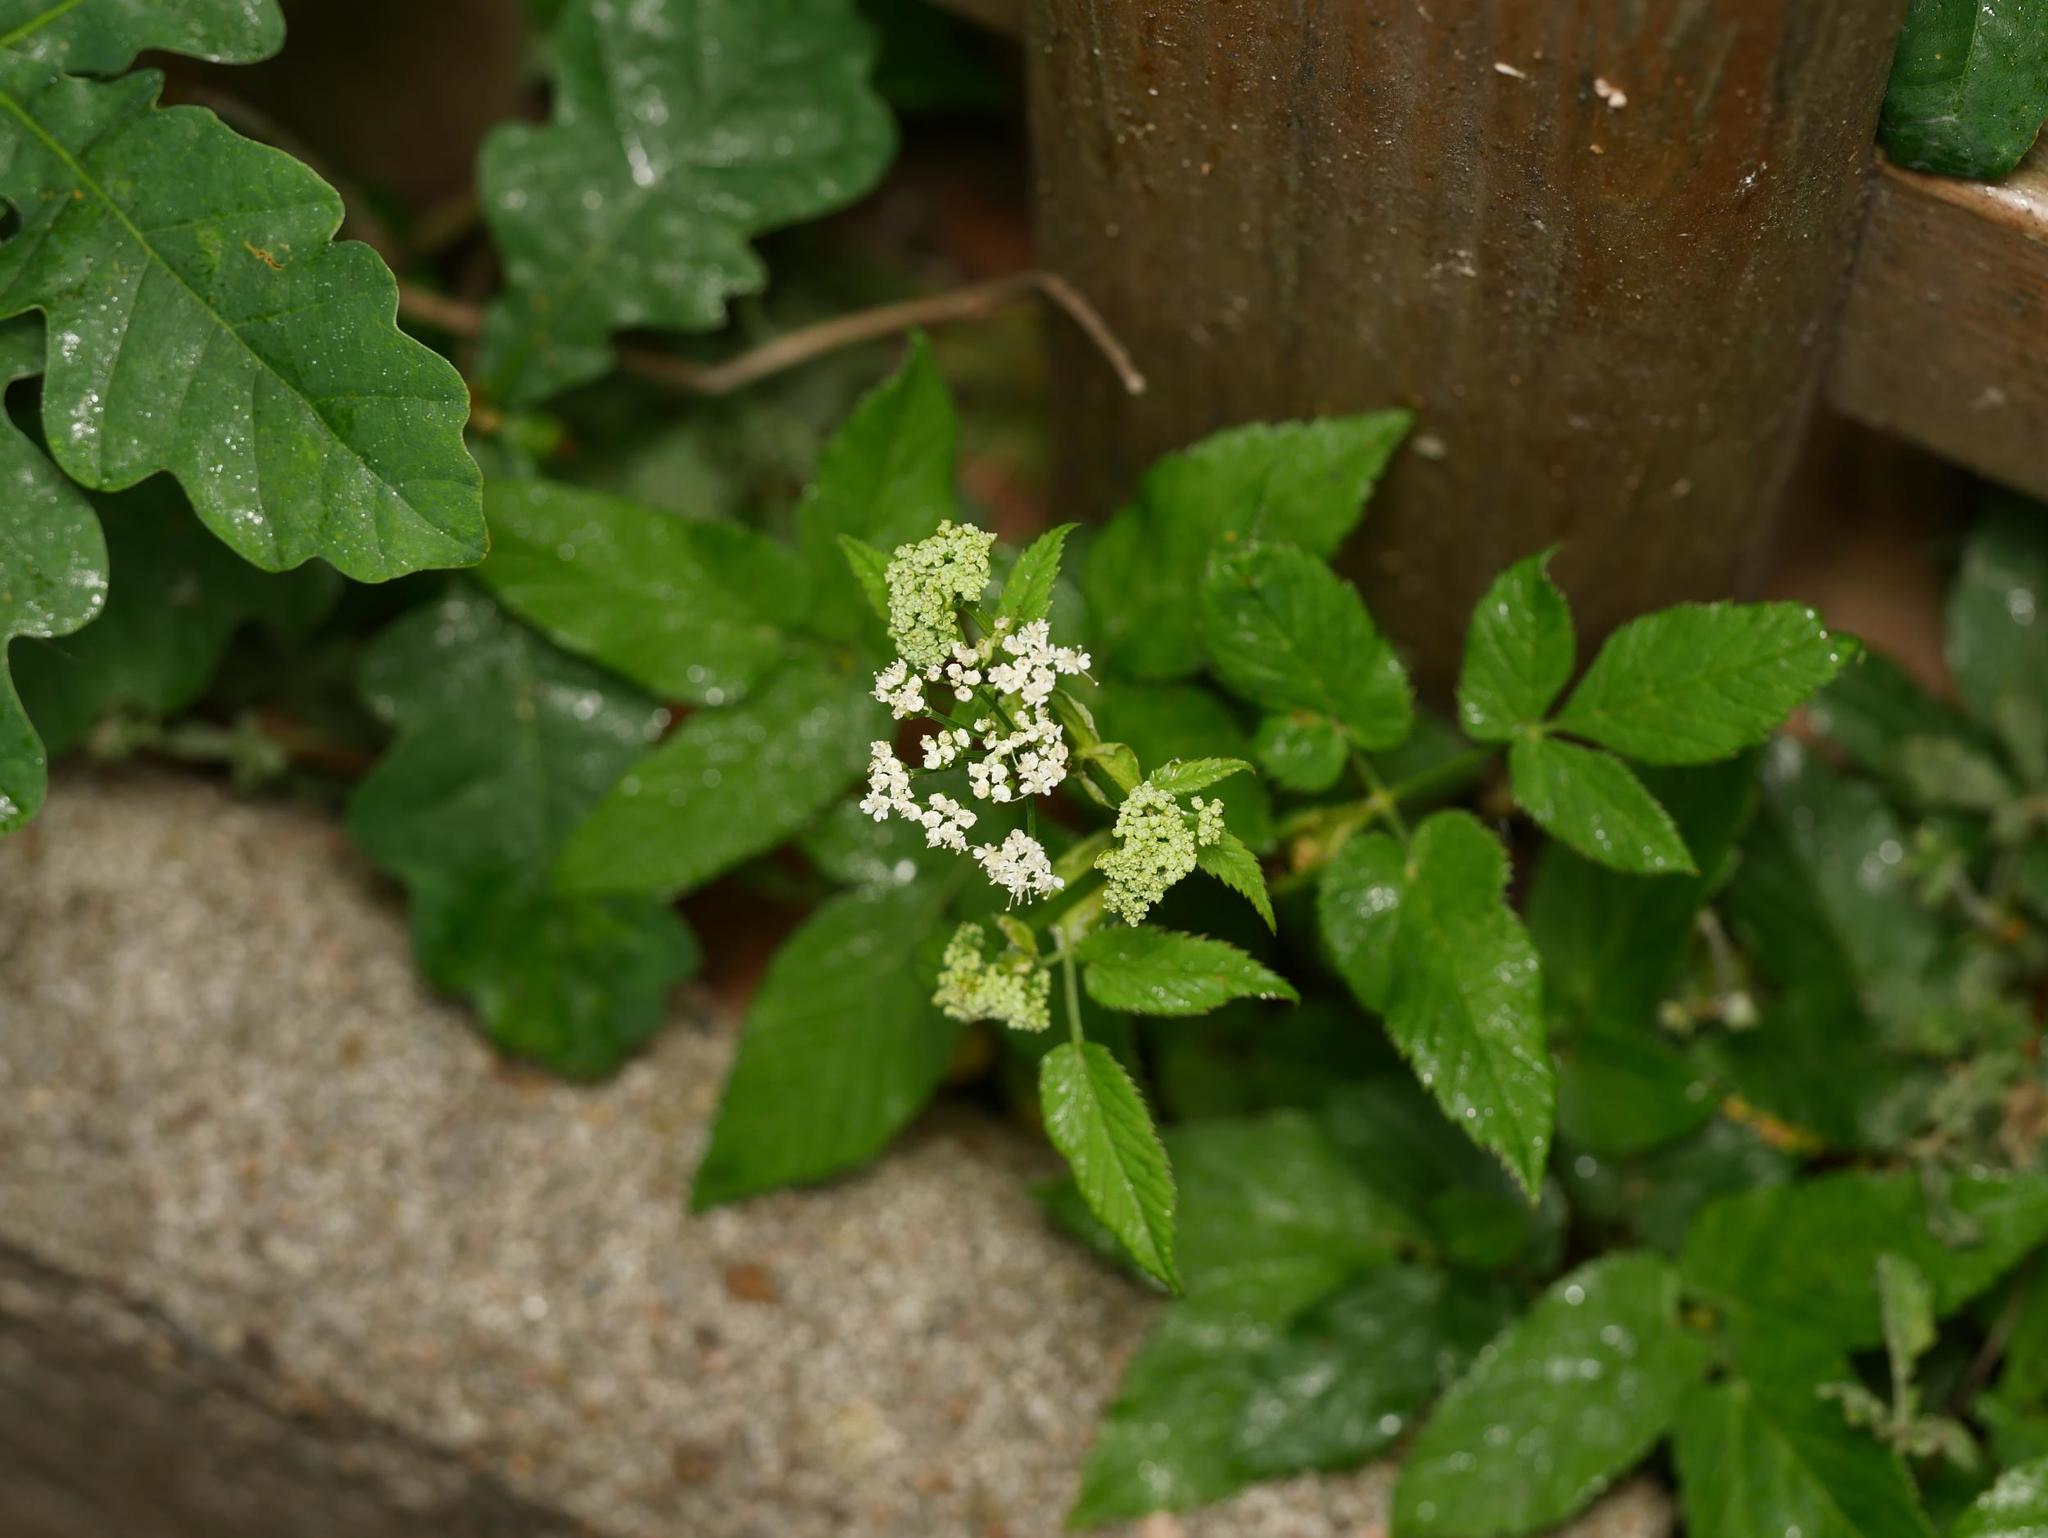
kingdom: Plantae
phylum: Tracheophyta
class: Magnoliopsida
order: Apiales
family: Apiaceae
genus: Aegopodium
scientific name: Aegopodium podagraria
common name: Ground-elder
